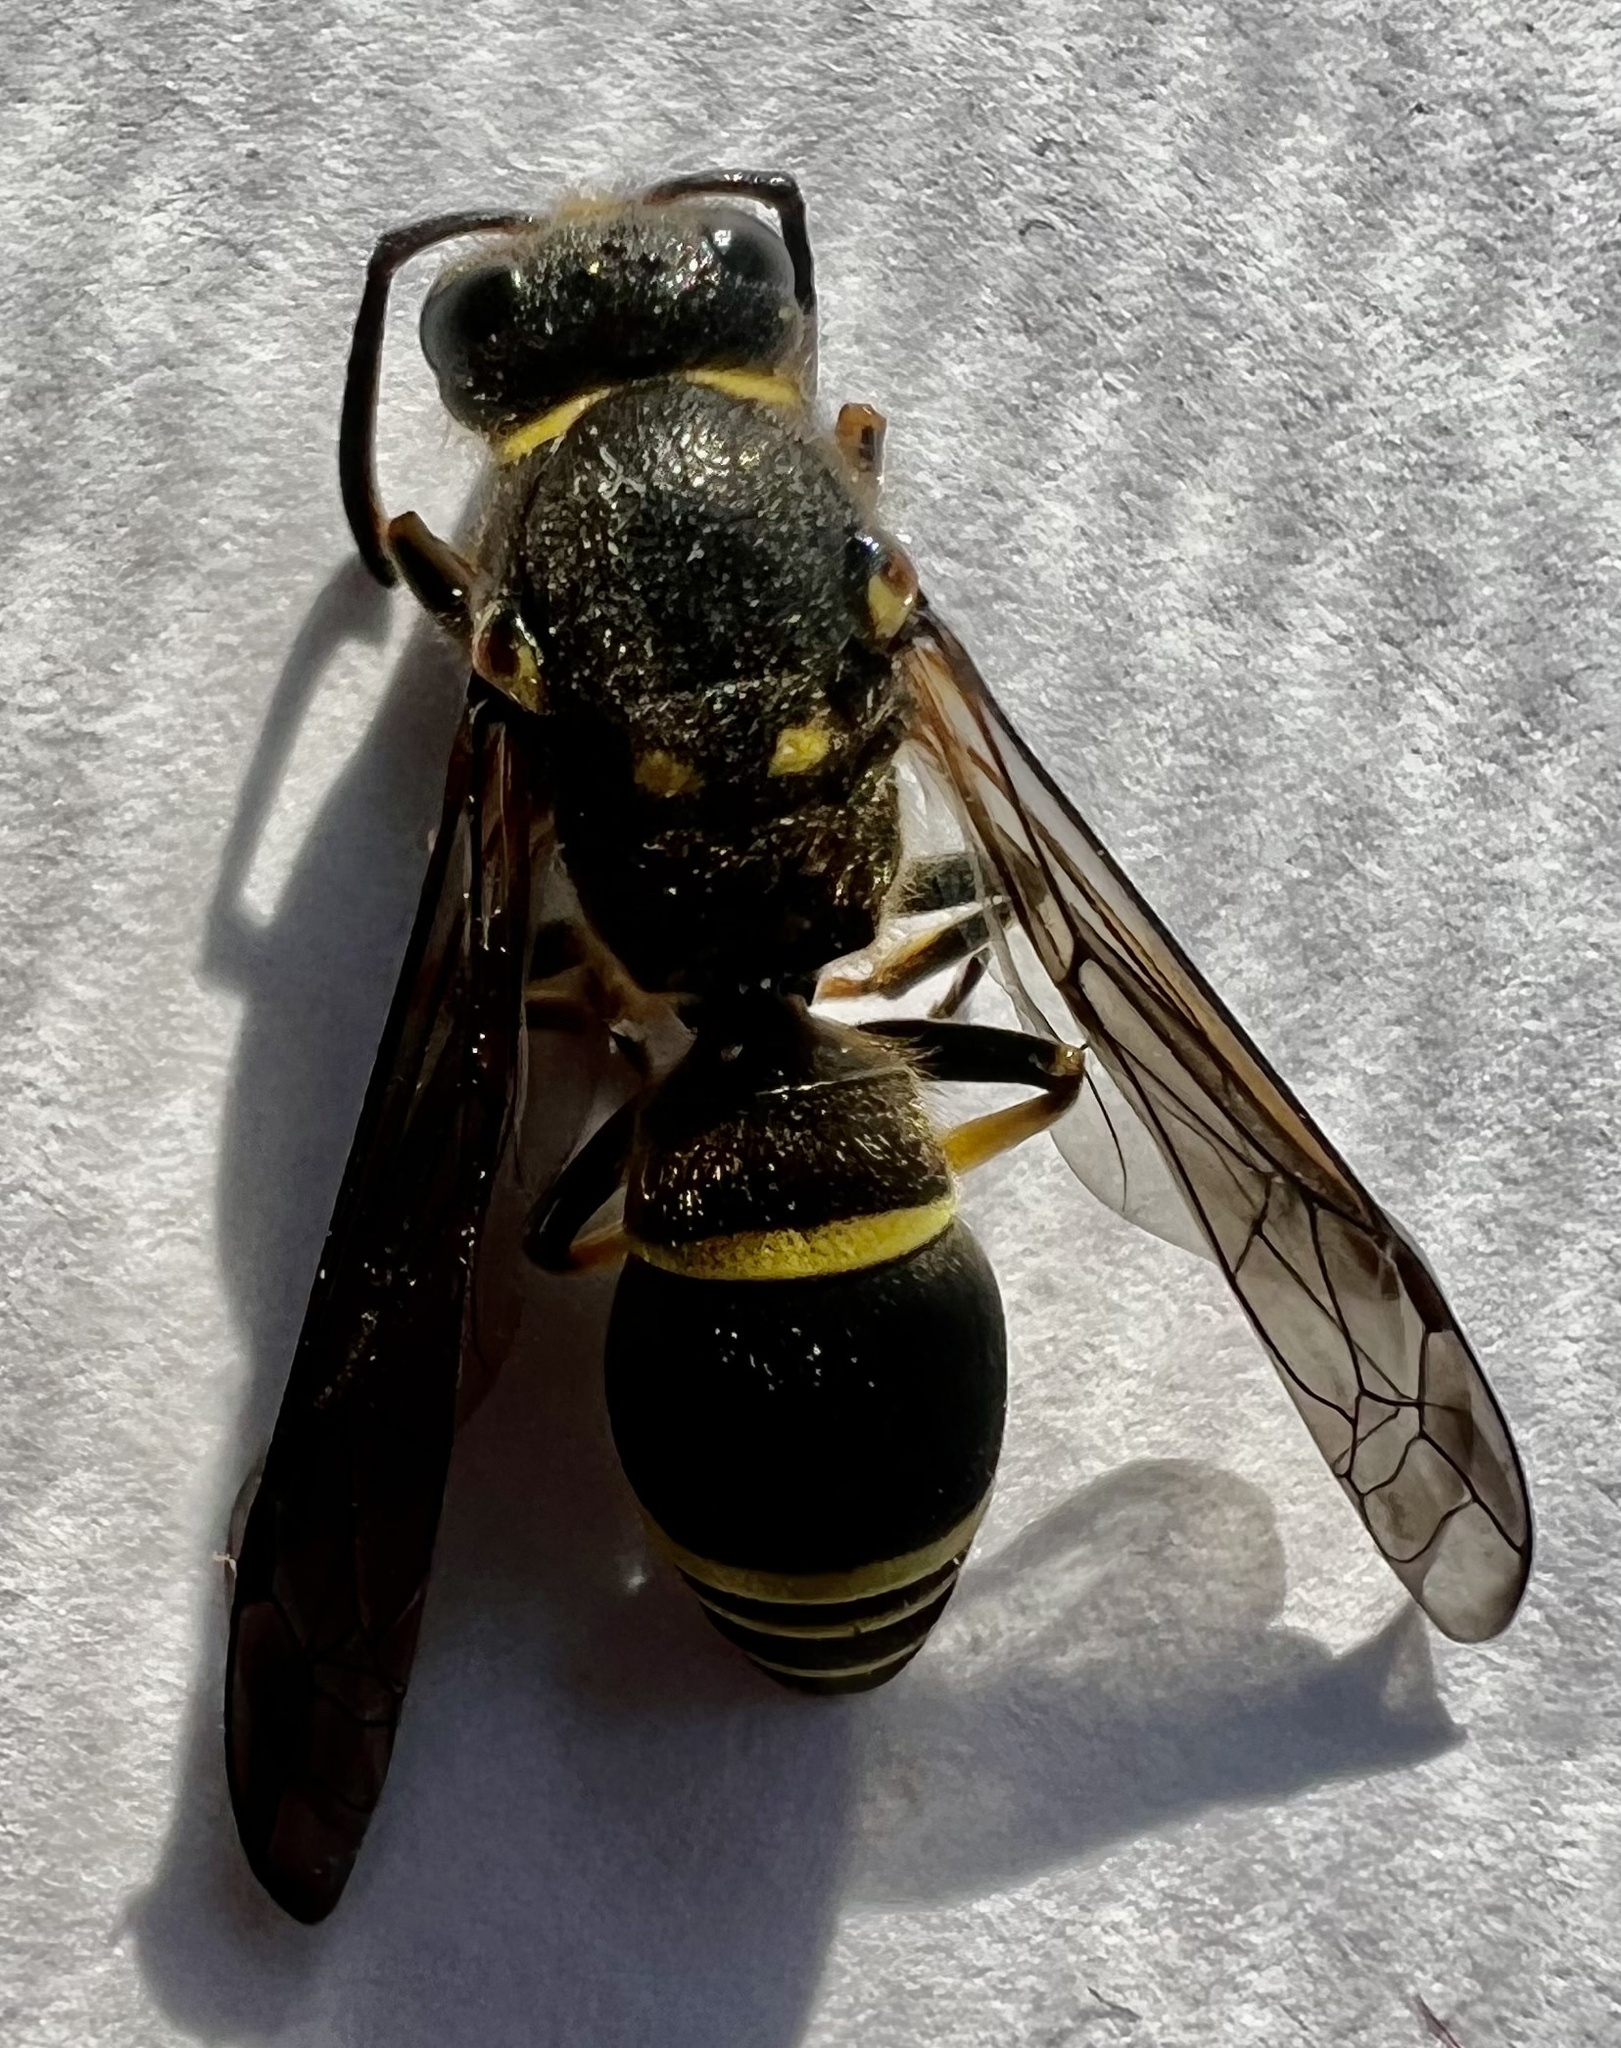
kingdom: Animalia
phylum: Arthropoda
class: Insecta
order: Hymenoptera
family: Vespidae
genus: Ancistrocerus
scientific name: Ancistrocerus
